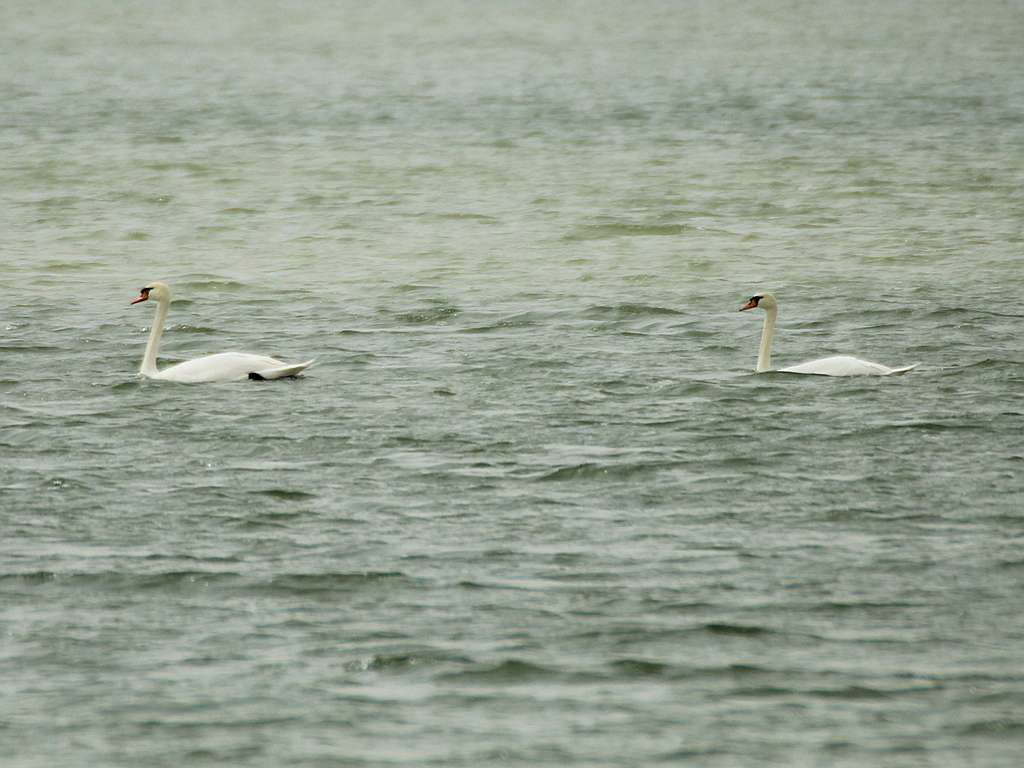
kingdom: Animalia
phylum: Chordata
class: Aves
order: Anseriformes
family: Anatidae
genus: Cygnus
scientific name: Cygnus olor
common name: Mute swan
